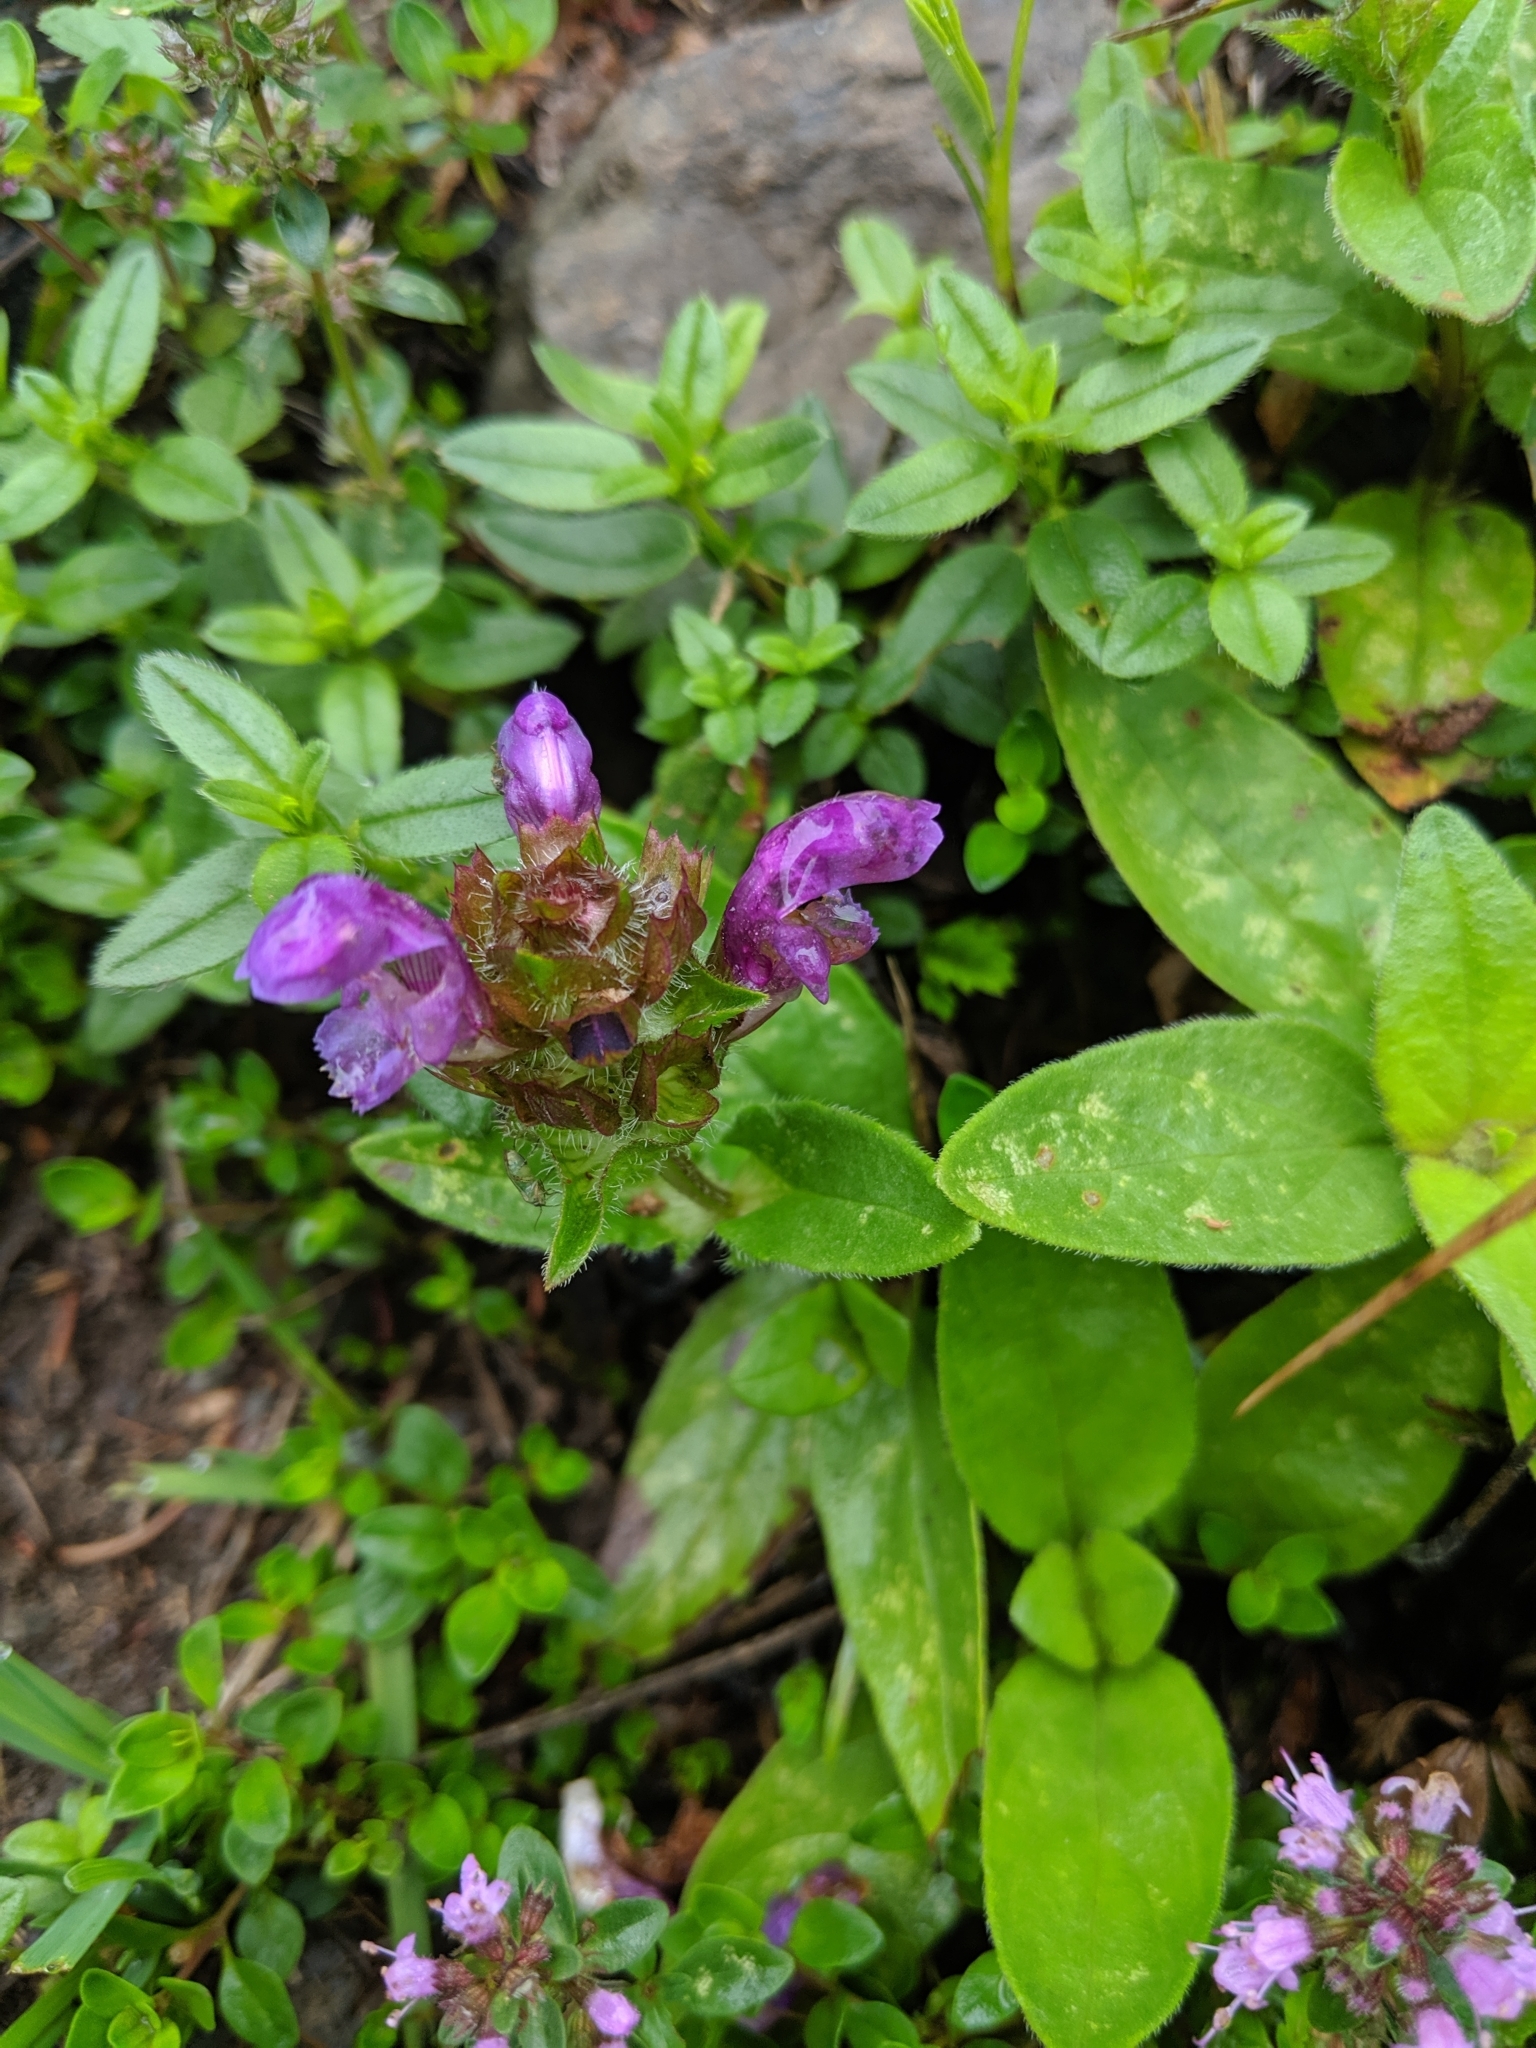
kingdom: Plantae
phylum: Tracheophyta
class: Magnoliopsida
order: Lamiales
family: Lamiaceae
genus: Prunella
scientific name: Prunella vulgaris
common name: Heal-all
